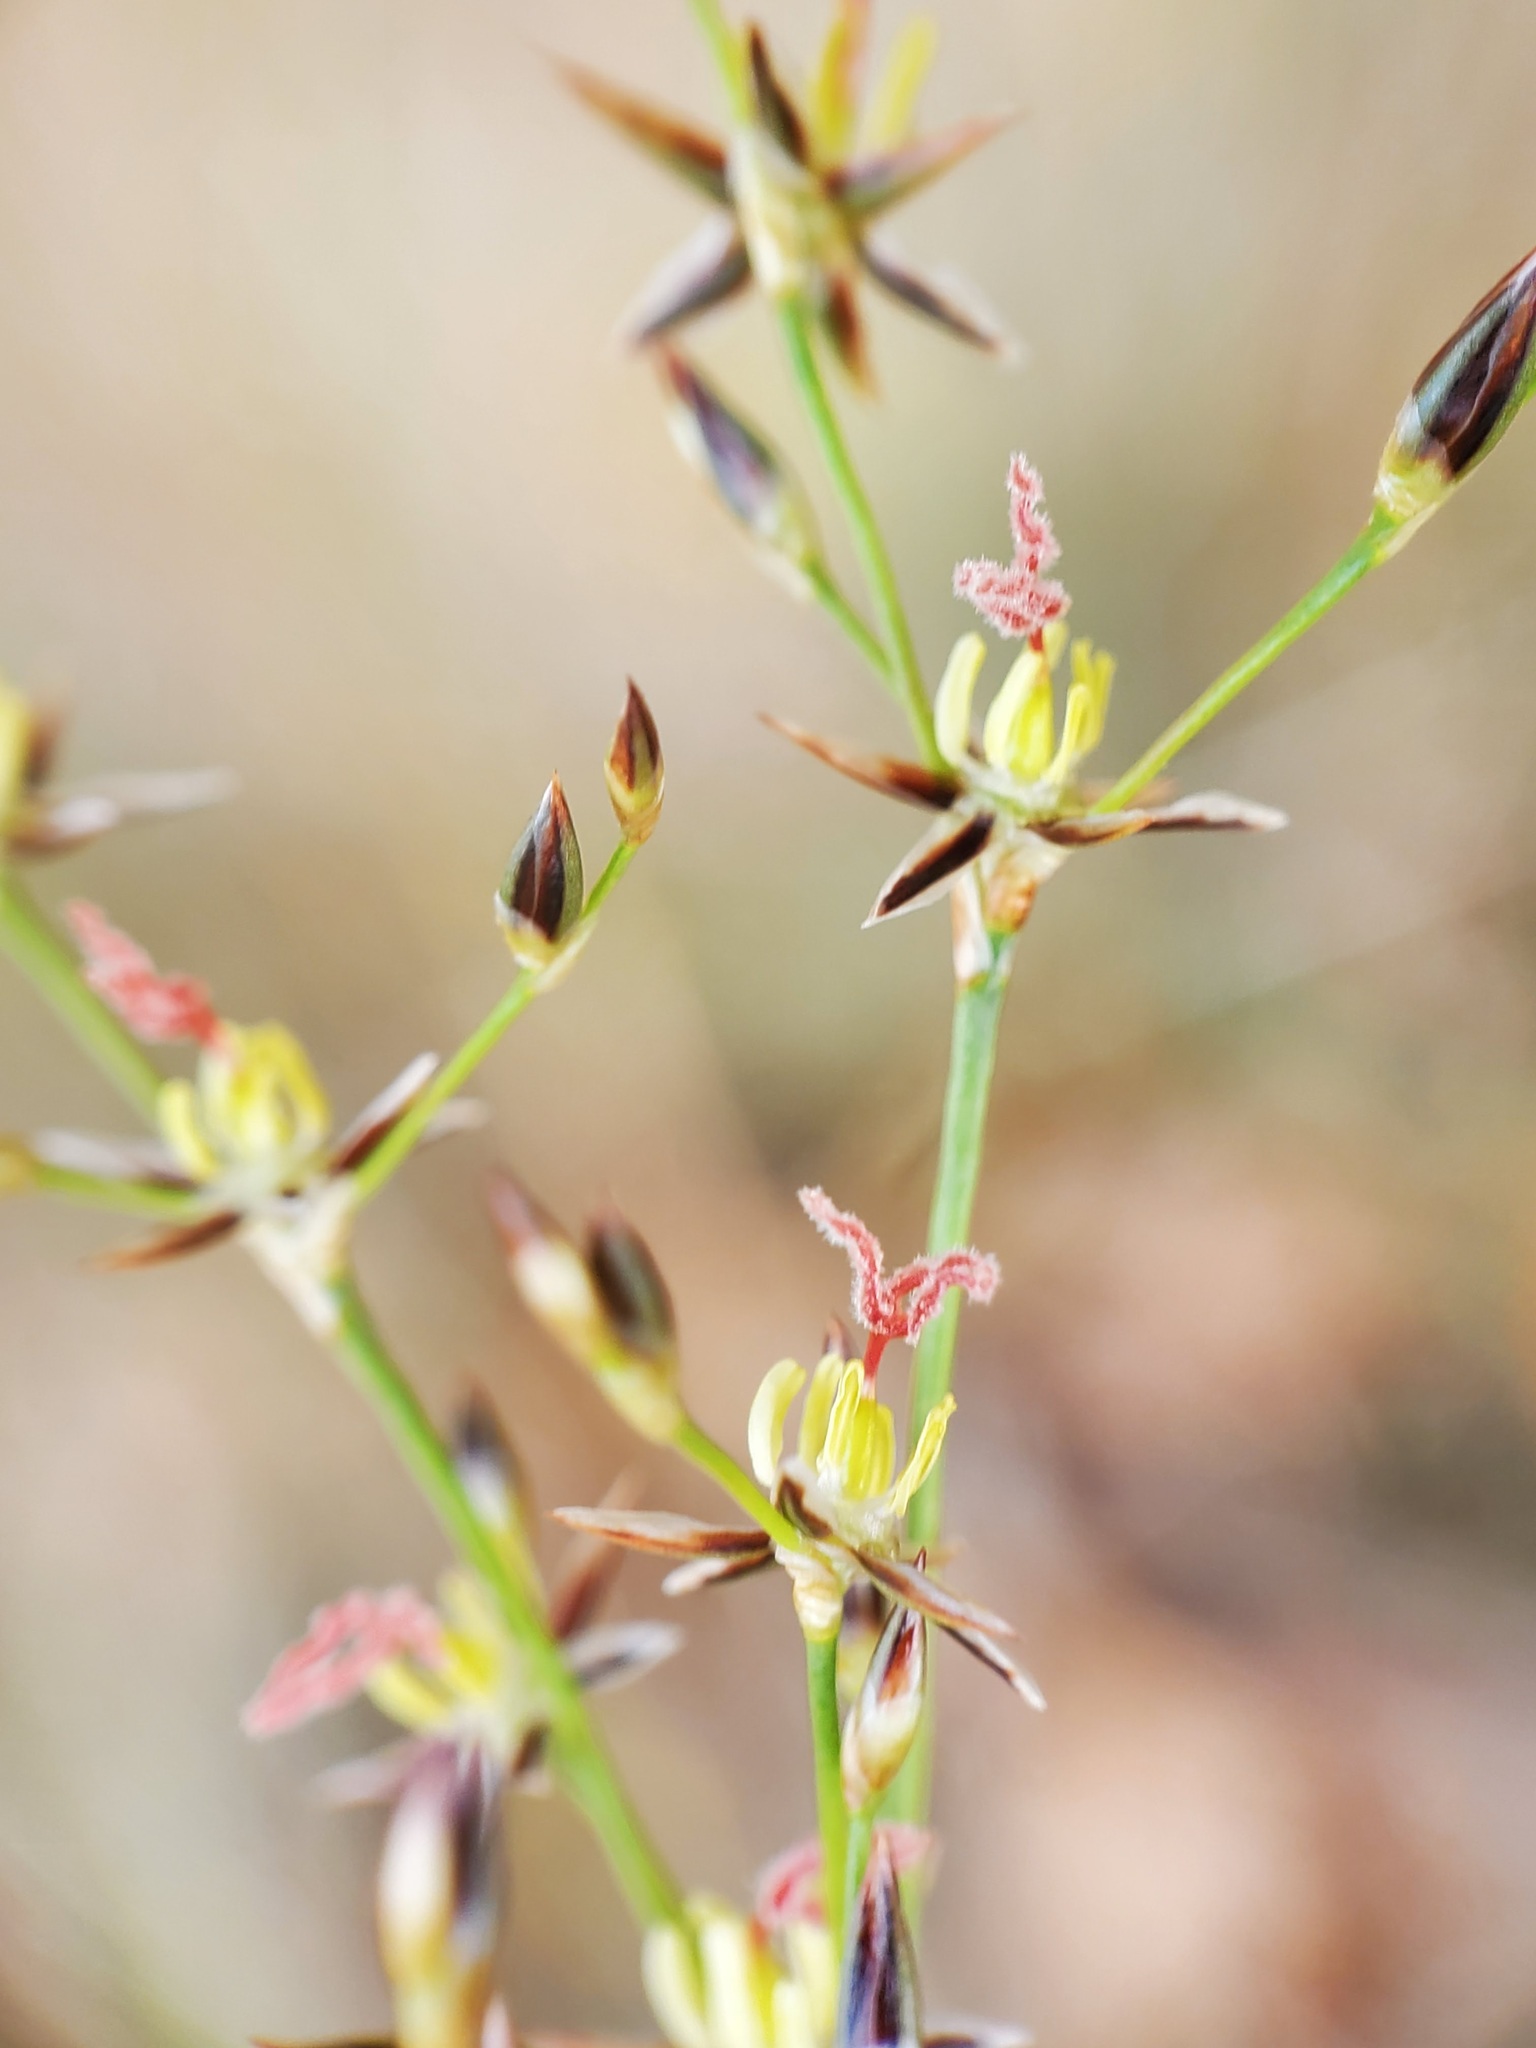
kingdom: Plantae
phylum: Tracheophyta
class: Liliopsida
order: Poales
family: Juncaceae
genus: Juncus
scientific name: Juncus balticus
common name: Baltic rush
